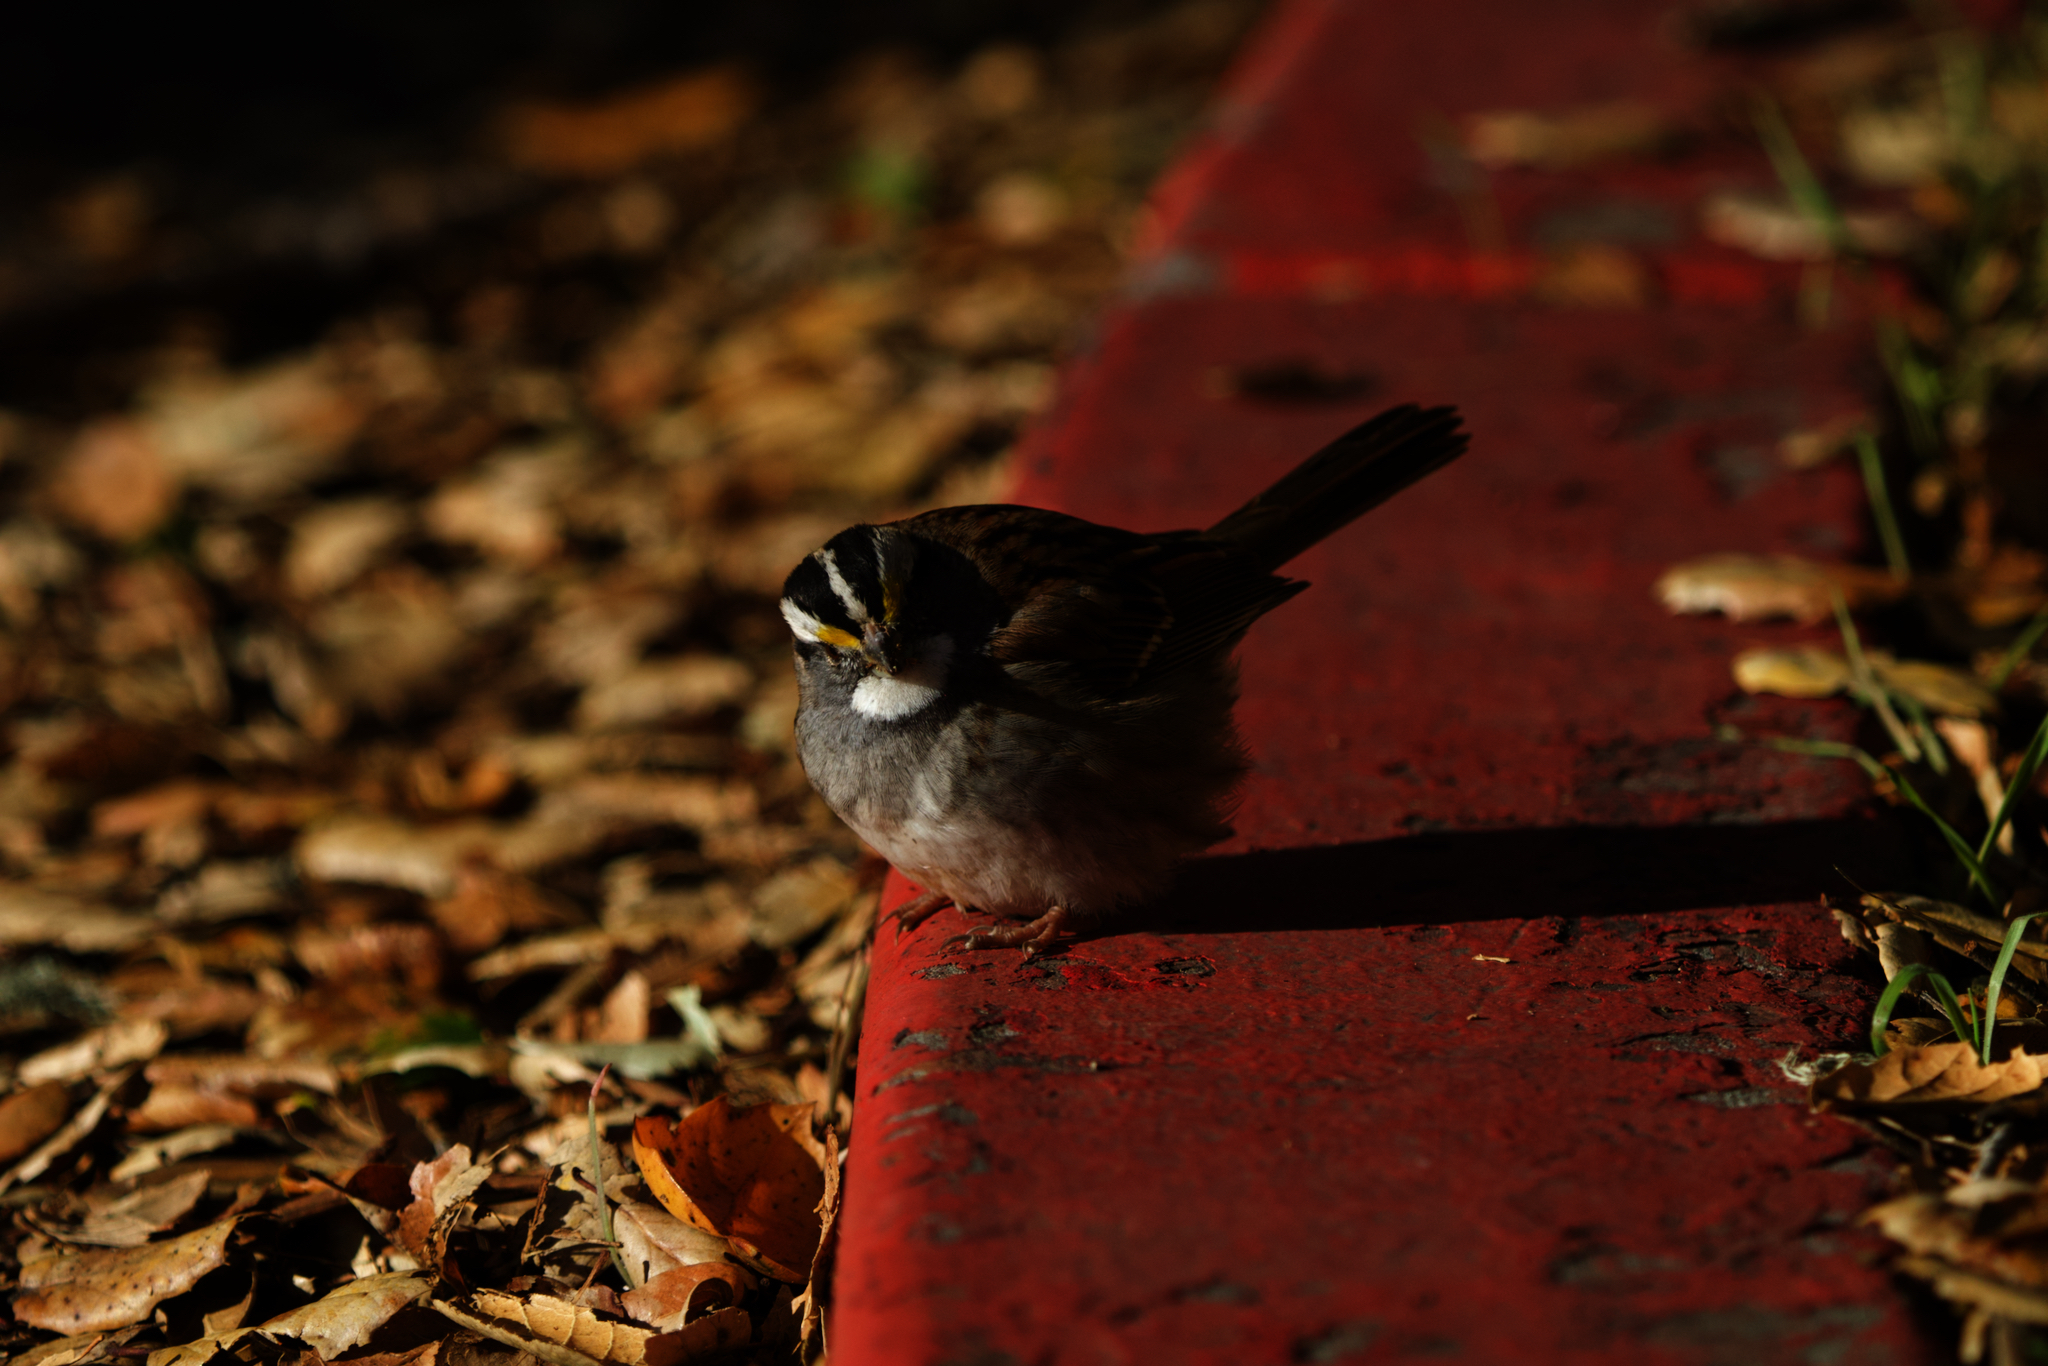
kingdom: Animalia
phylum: Chordata
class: Aves
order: Passeriformes
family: Passerellidae
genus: Zonotrichia
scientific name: Zonotrichia albicollis
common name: White-throated sparrow
